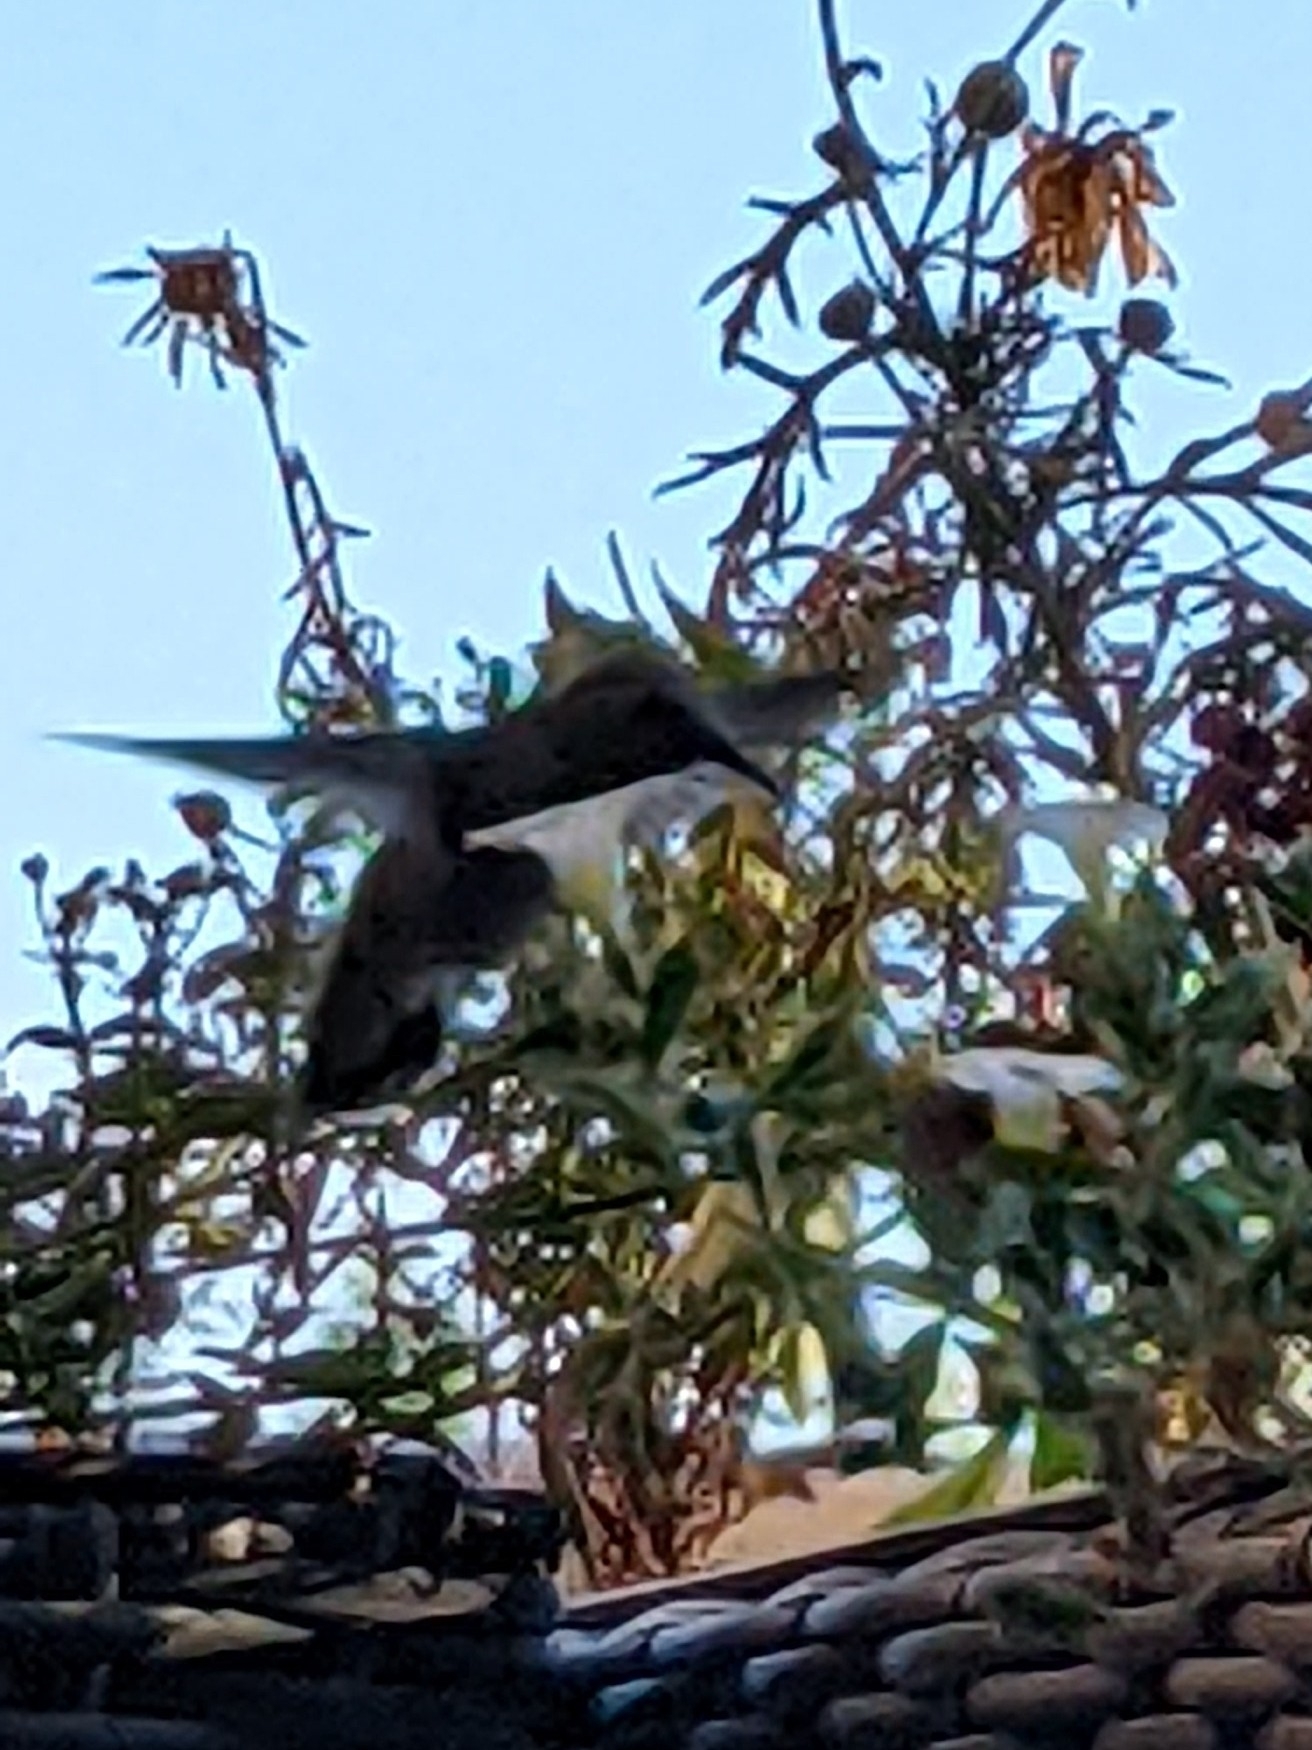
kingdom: Animalia
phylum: Chordata
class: Aves
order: Apodiformes
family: Trochilidae
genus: Calypte
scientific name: Calypte anna
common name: Anna's hummingbird
